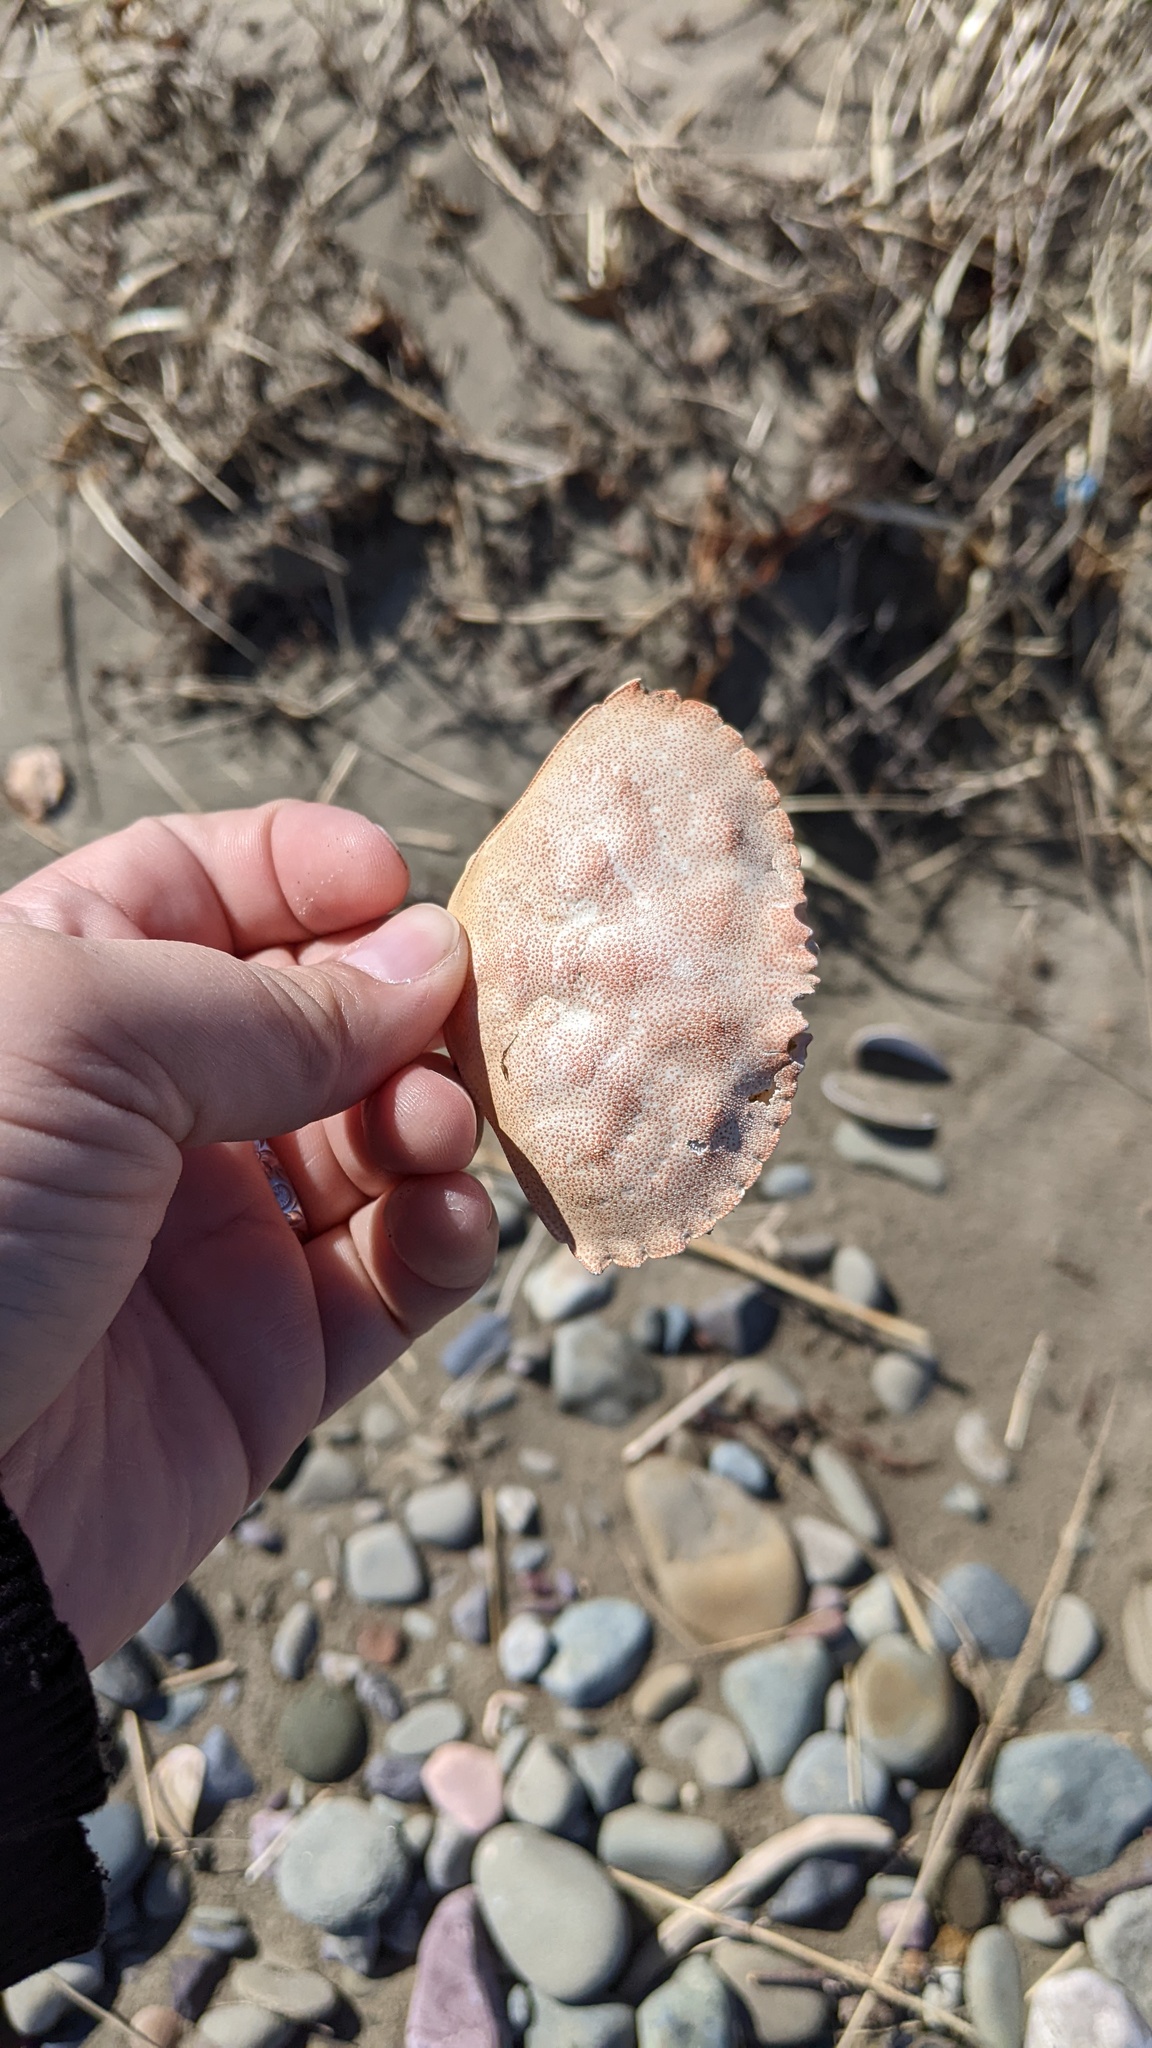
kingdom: Animalia
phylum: Arthropoda
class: Malacostraca
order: Decapoda
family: Cancridae
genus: Cancer
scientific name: Cancer irroratus
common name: Atlantic rock crab
